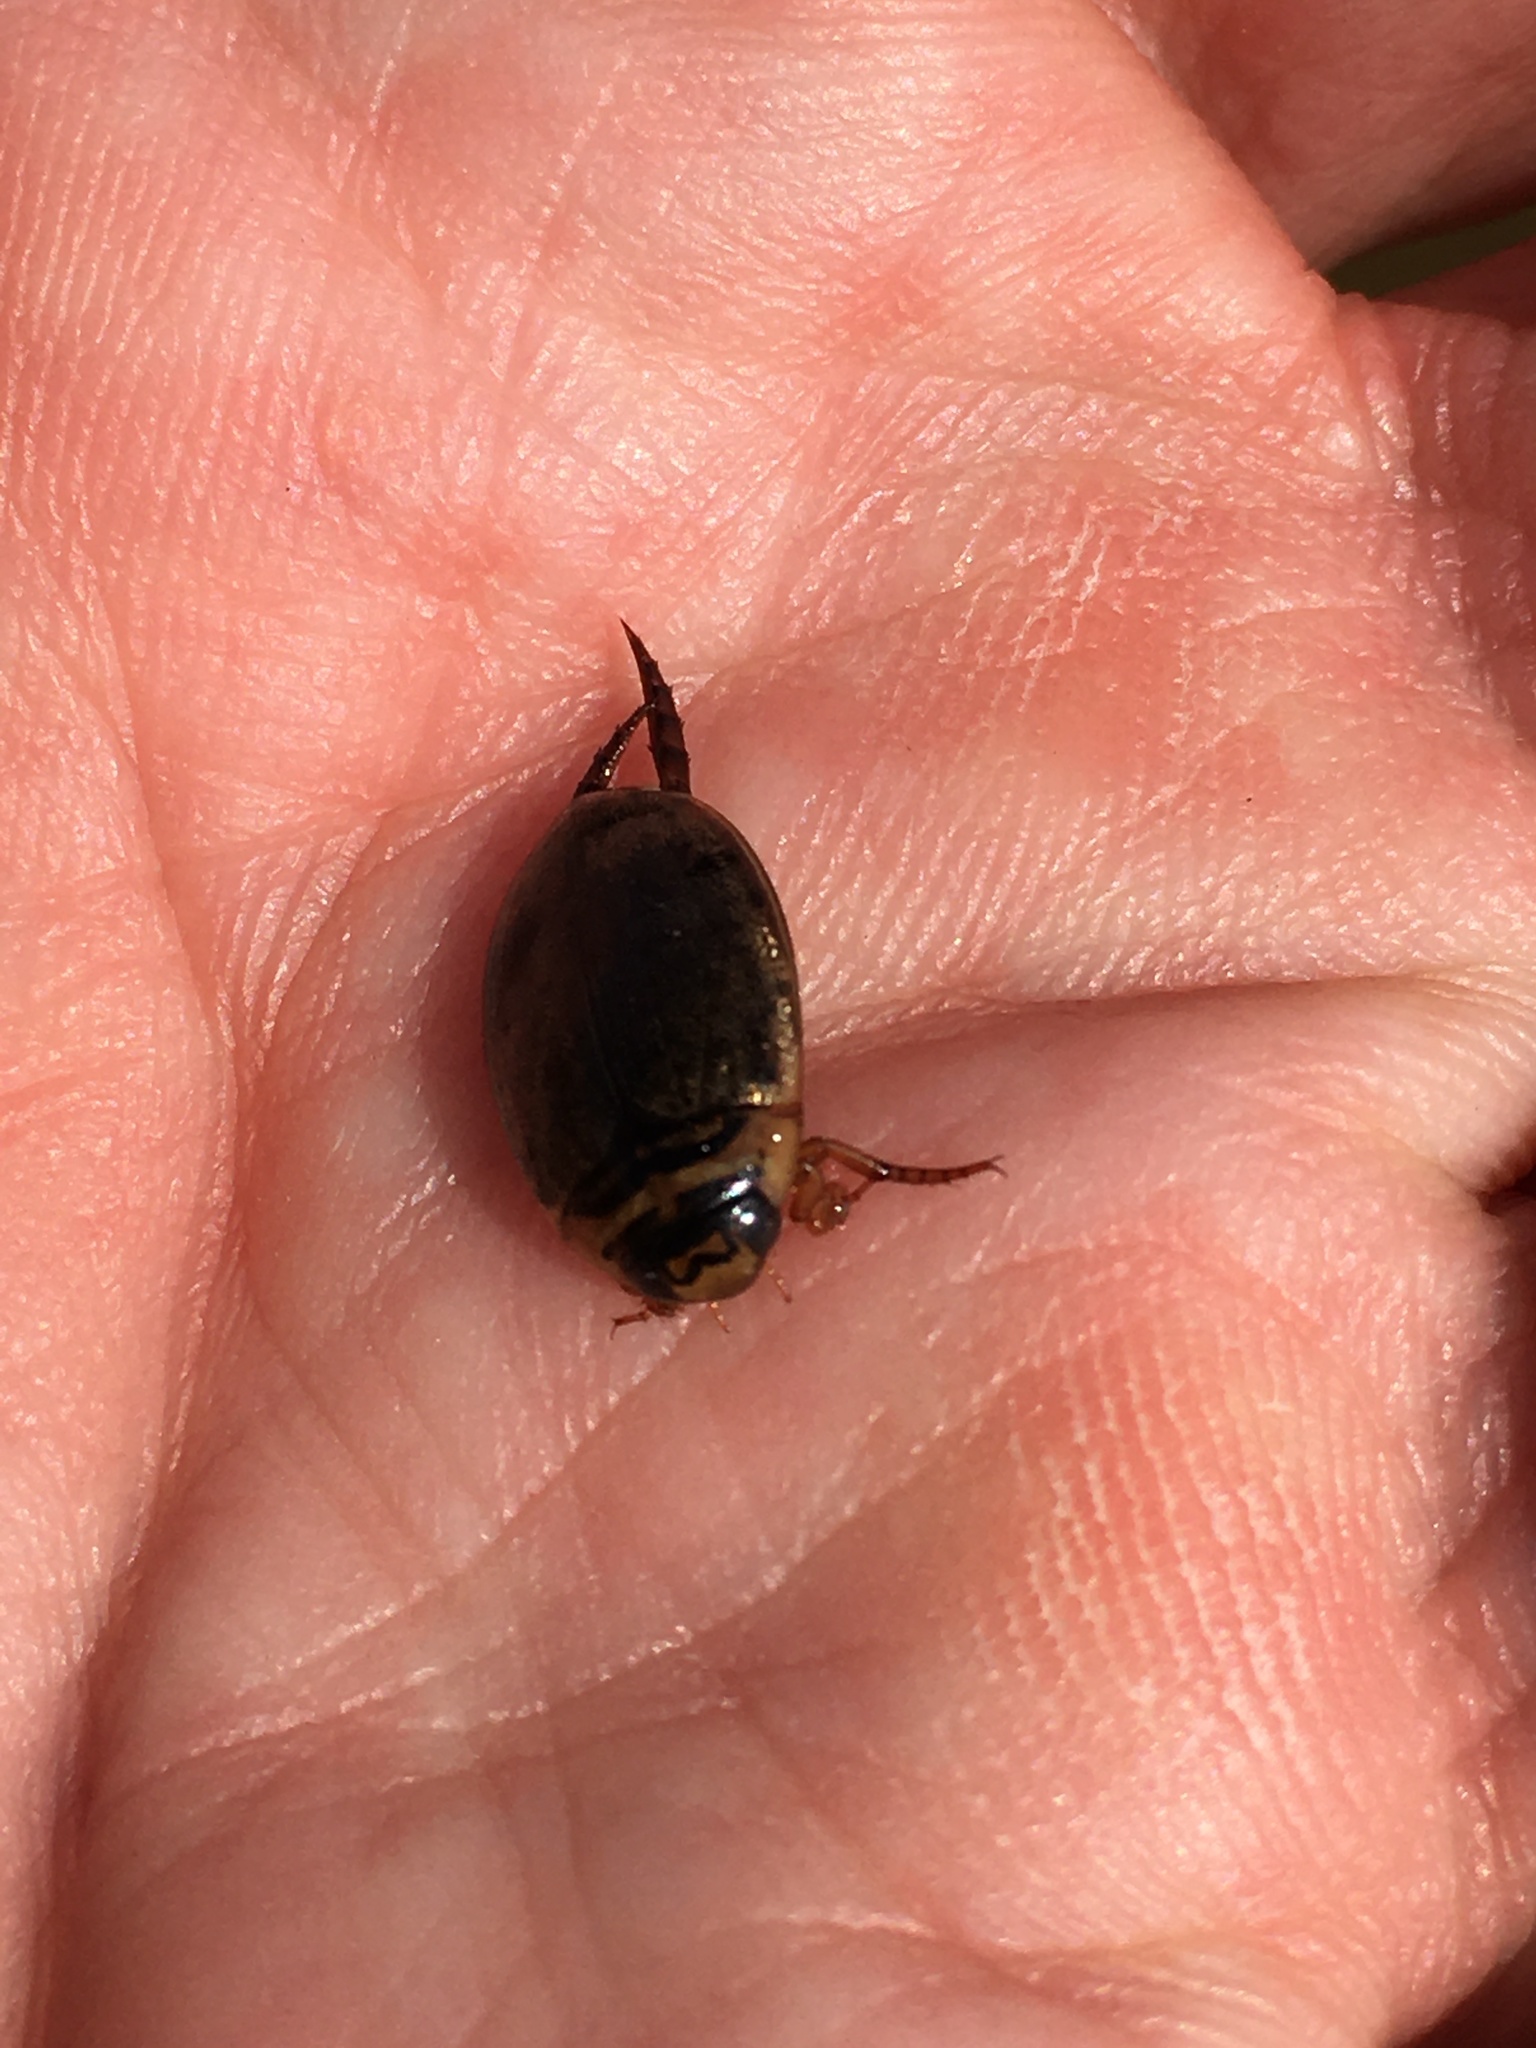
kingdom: Animalia
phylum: Arthropoda
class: Insecta
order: Coleoptera
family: Dytiscidae
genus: Thermonectus
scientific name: Thermonectus nigrofasciatus
